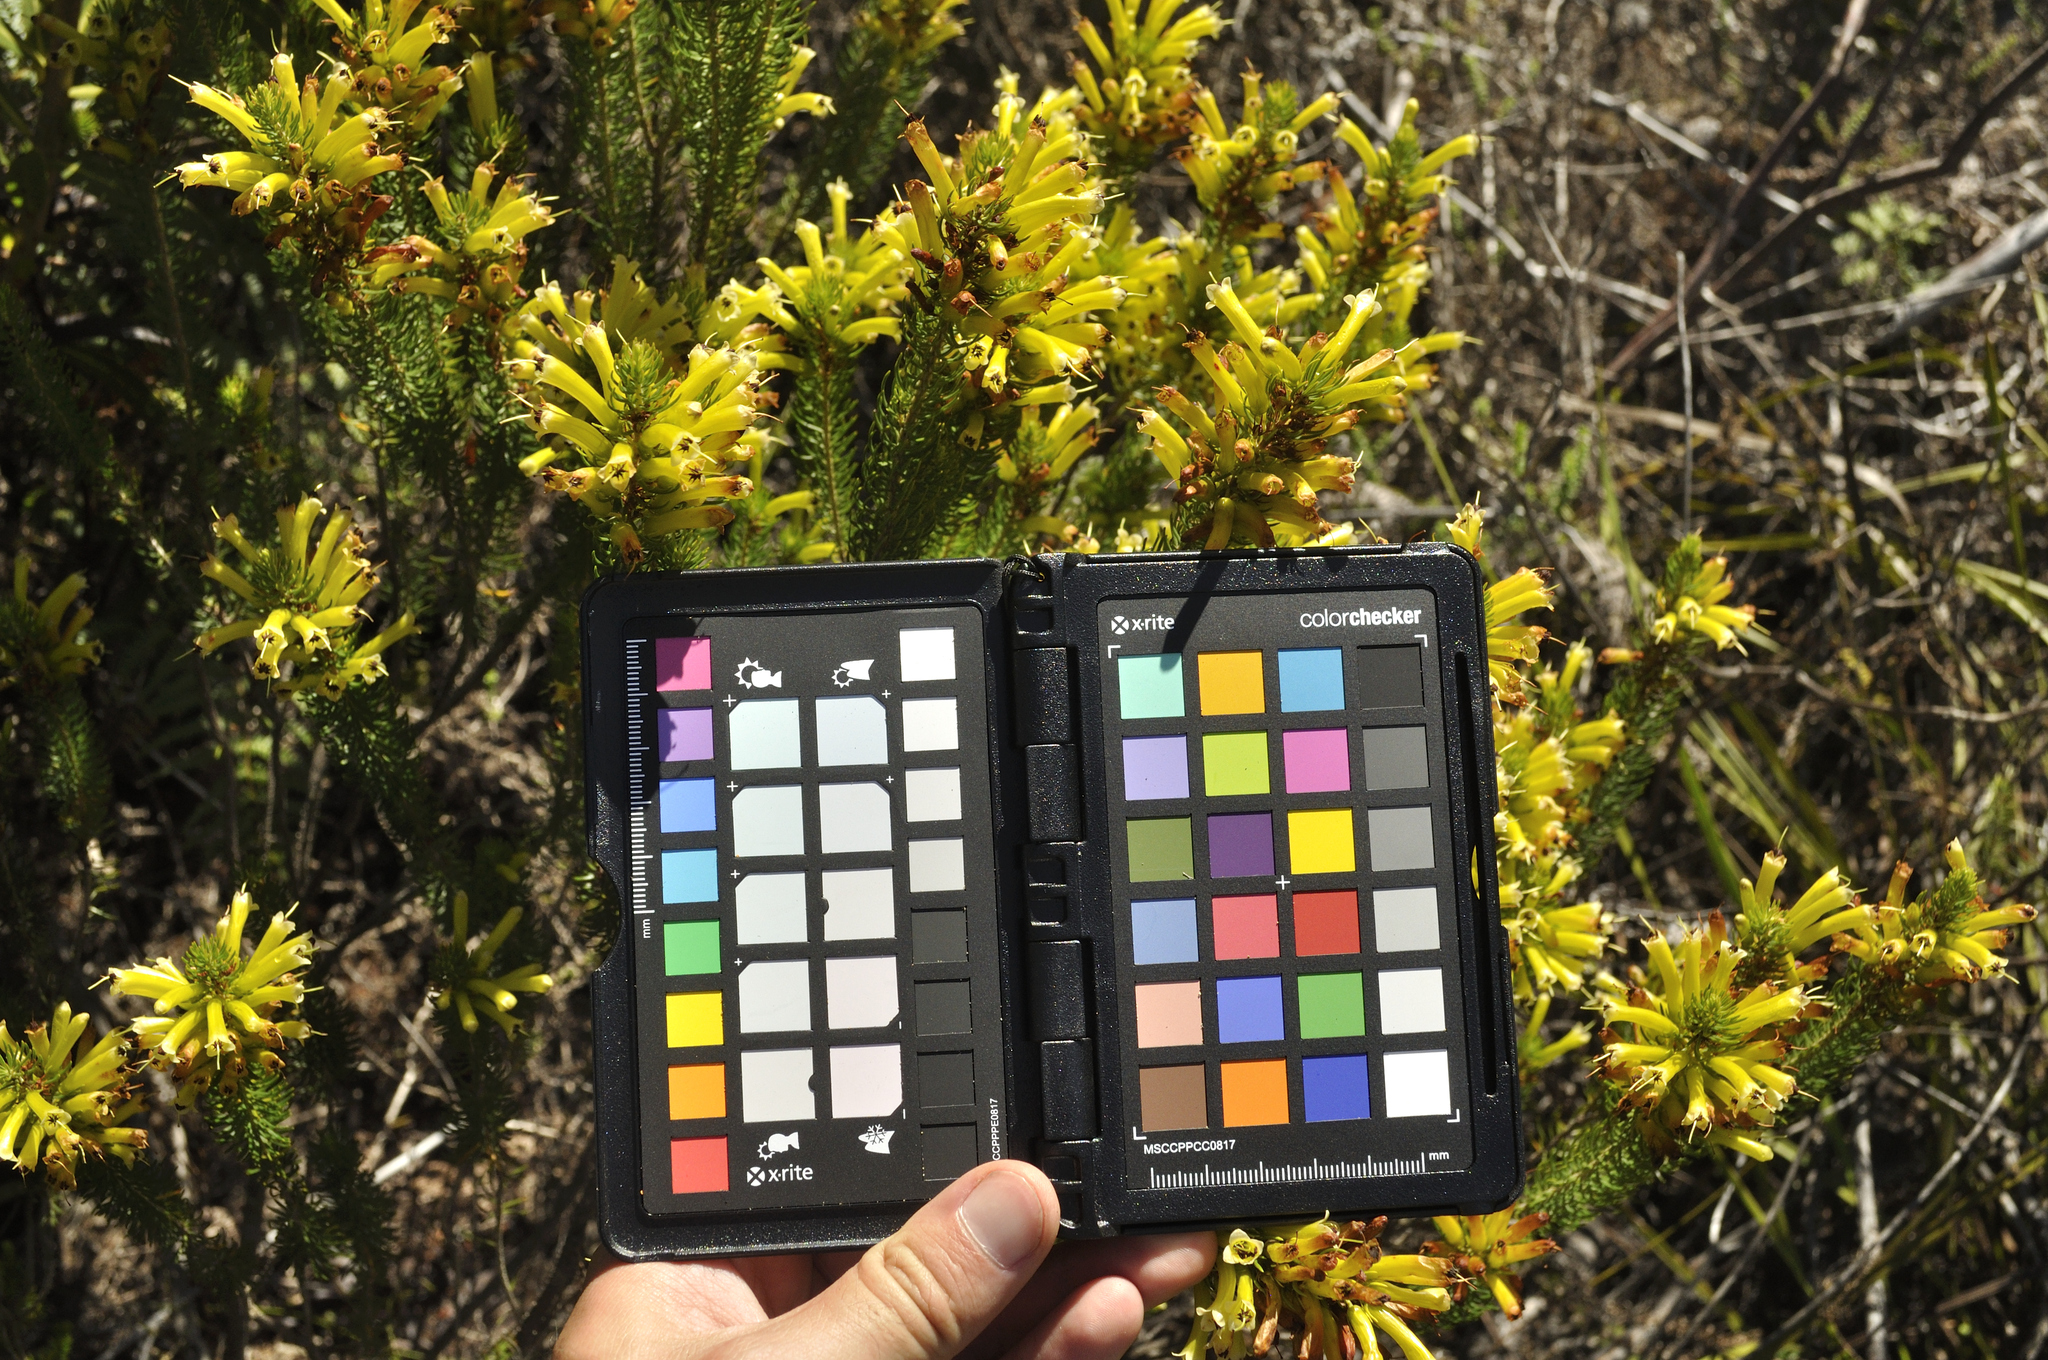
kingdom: Plantae
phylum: Tracheophyta
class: Magnoliopsida
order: Ericales
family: Ericaceae
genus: Erica
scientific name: Erica pinea
